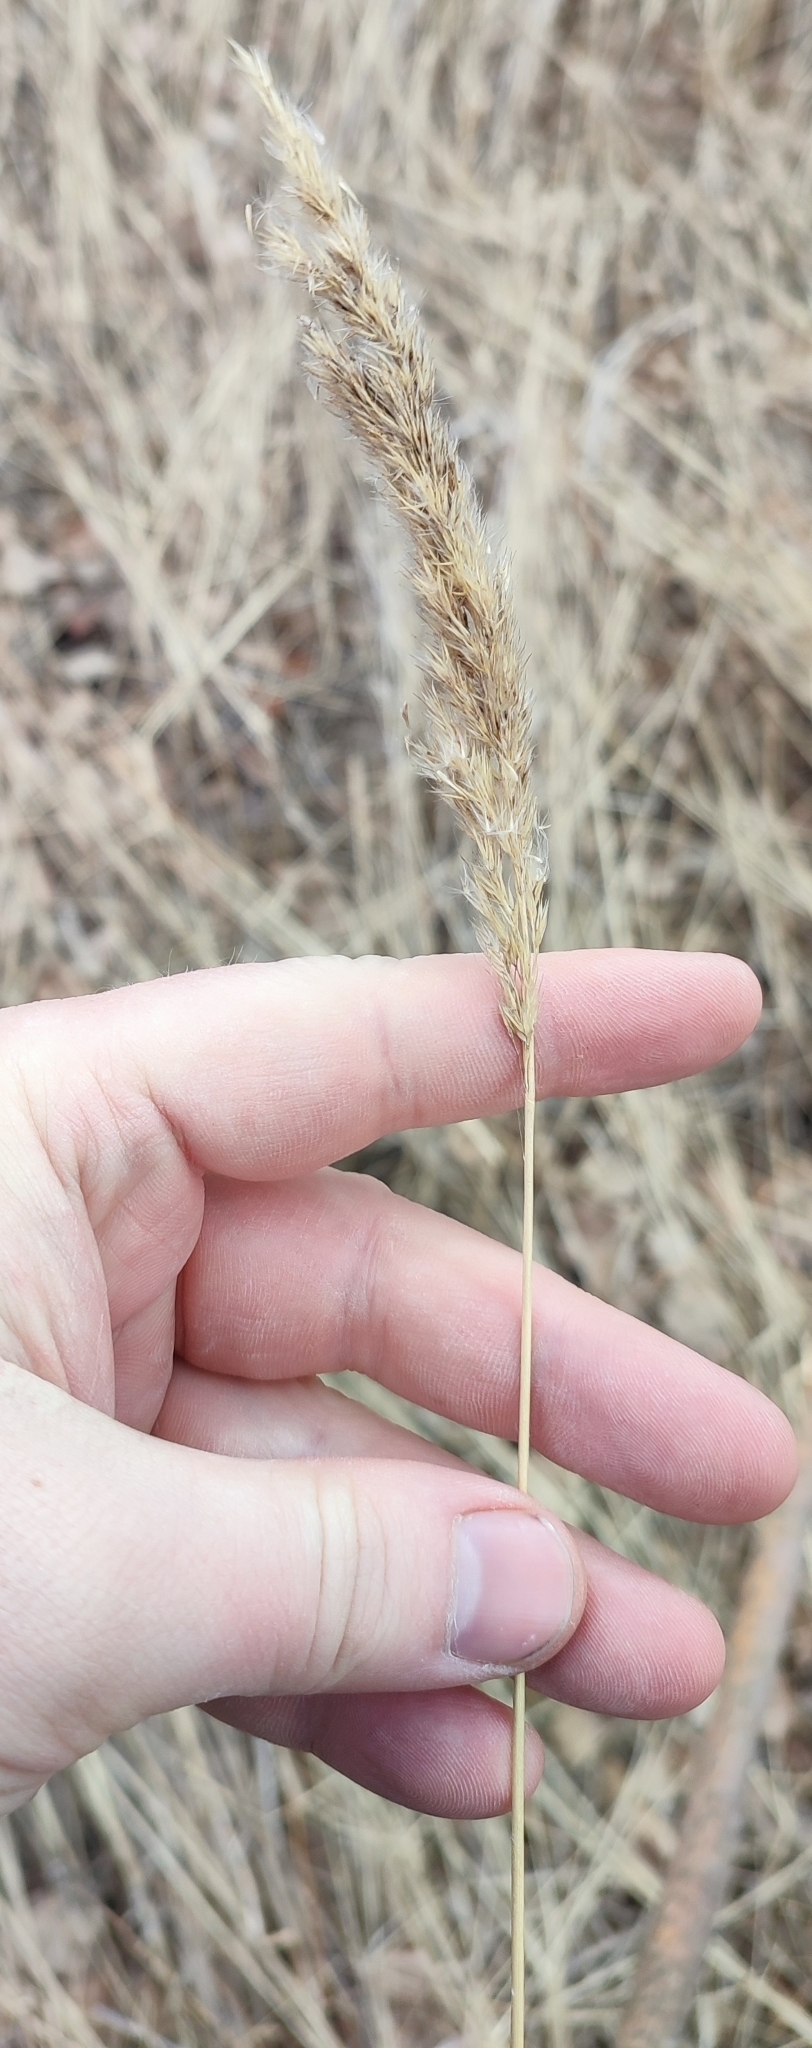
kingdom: Plantae
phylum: Tracheophyta
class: Liliopsida
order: Poales
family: Poaceae
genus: Calamagrostis
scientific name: Calamagrostis epigejos
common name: Wood small-reed
